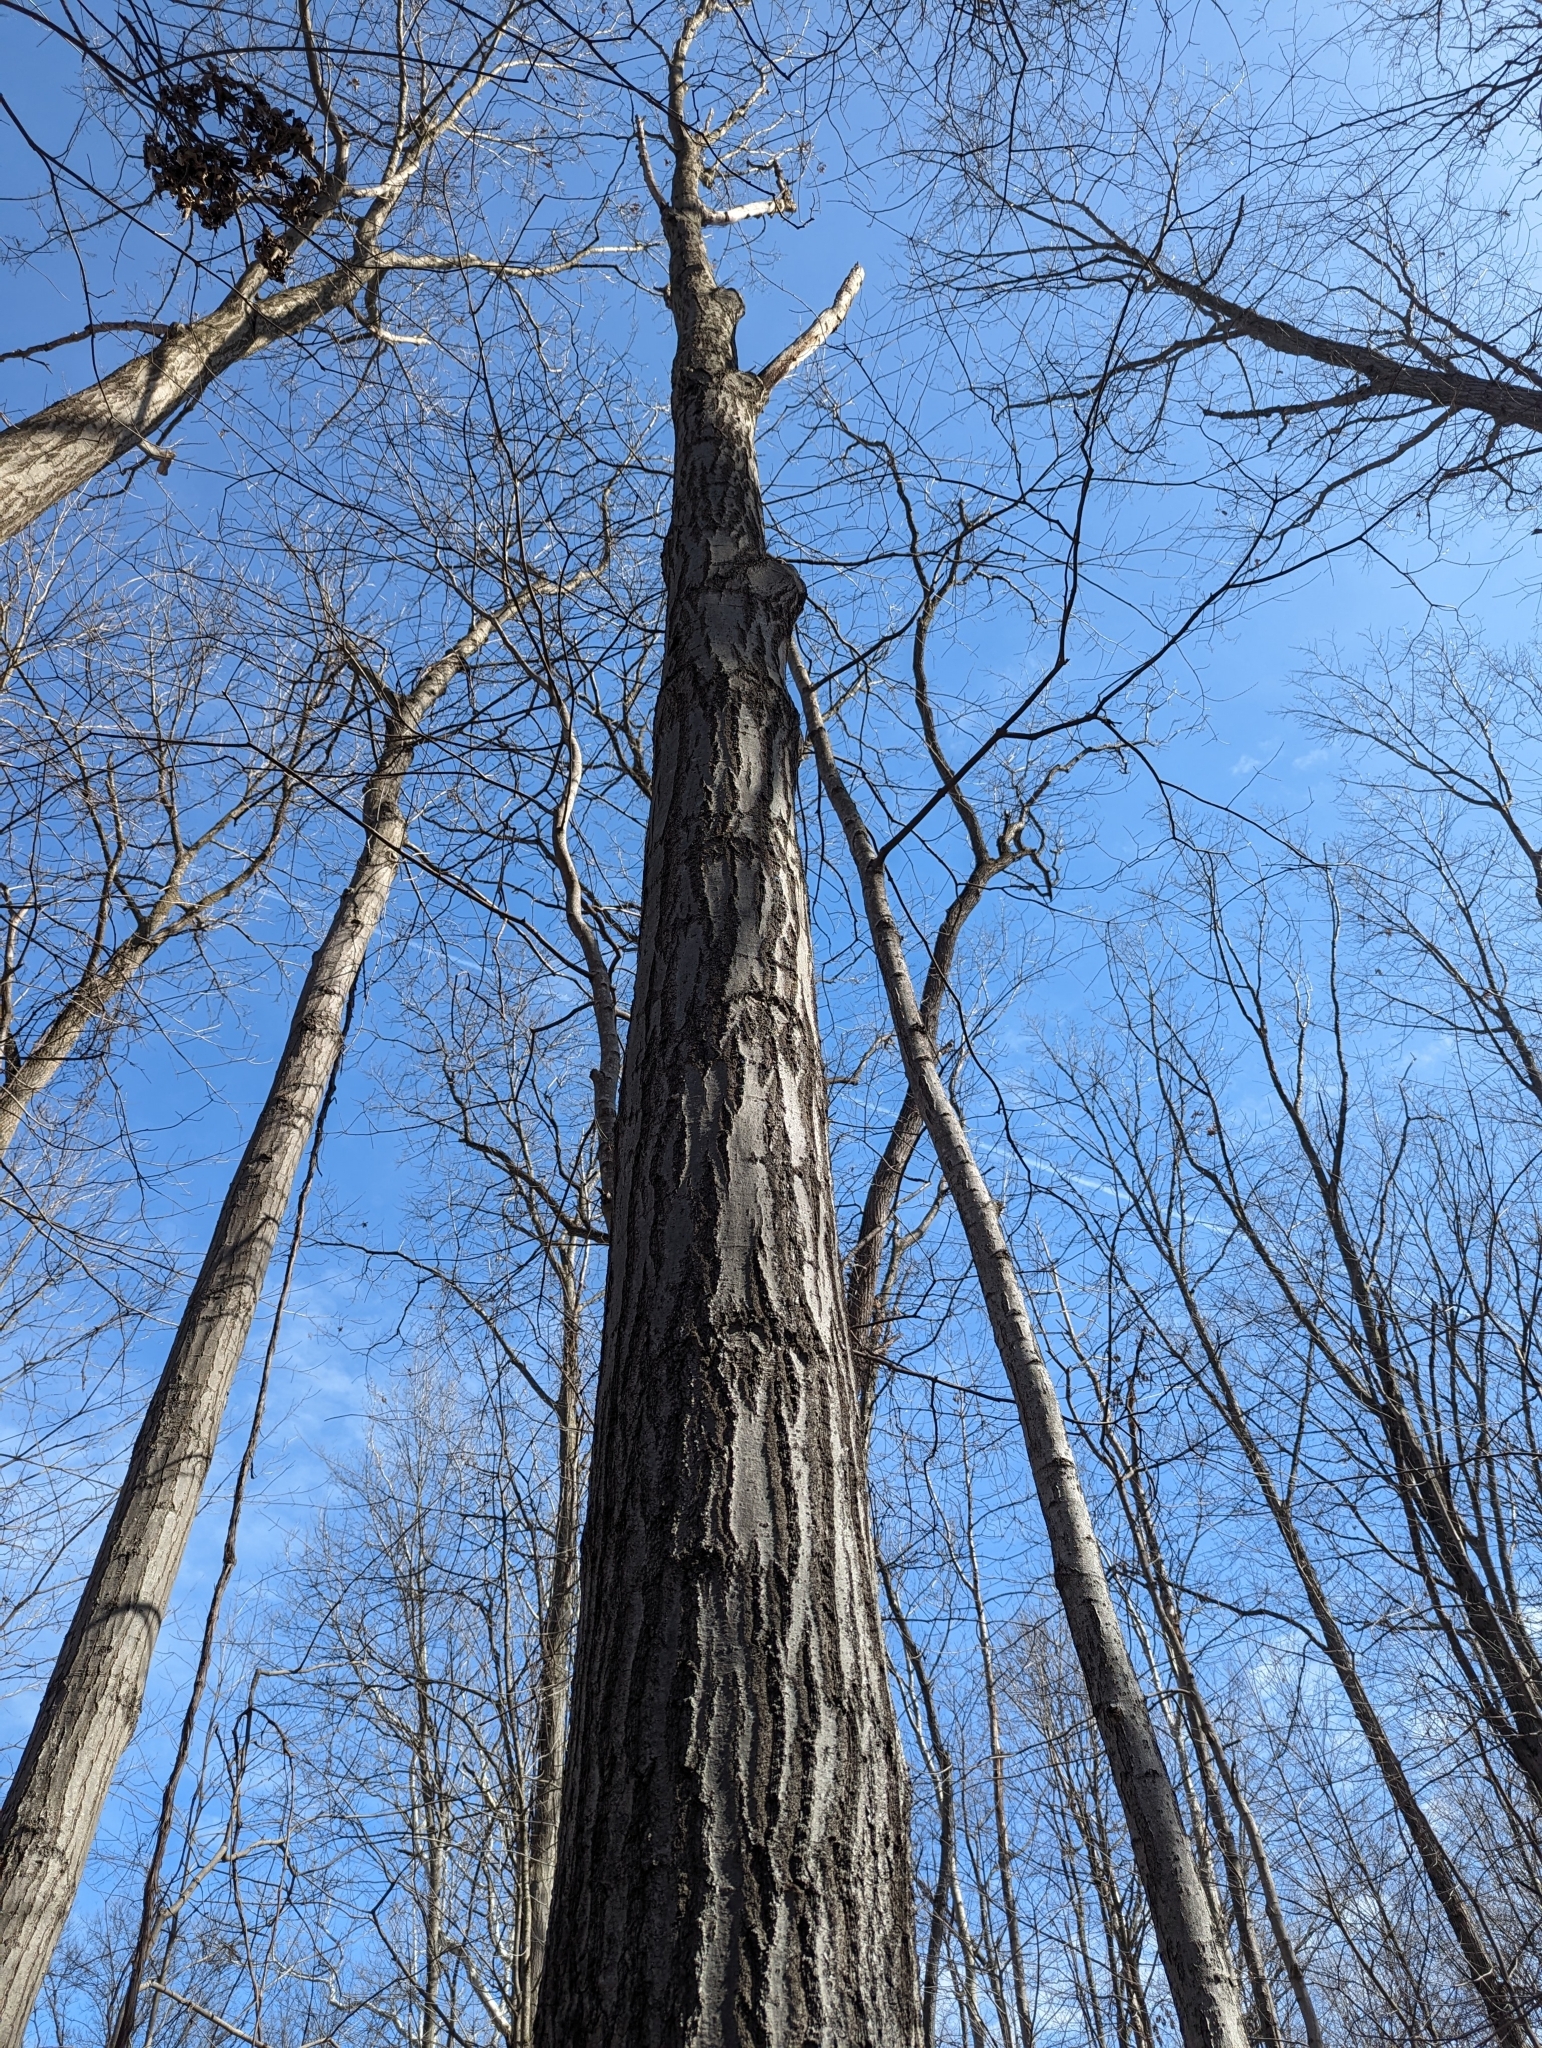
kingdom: Plantae
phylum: Tracheophyta
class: Magnoliopsida
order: Fagales
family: Fagaceae
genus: Quercus
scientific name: Quercus rubra
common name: Red oak
